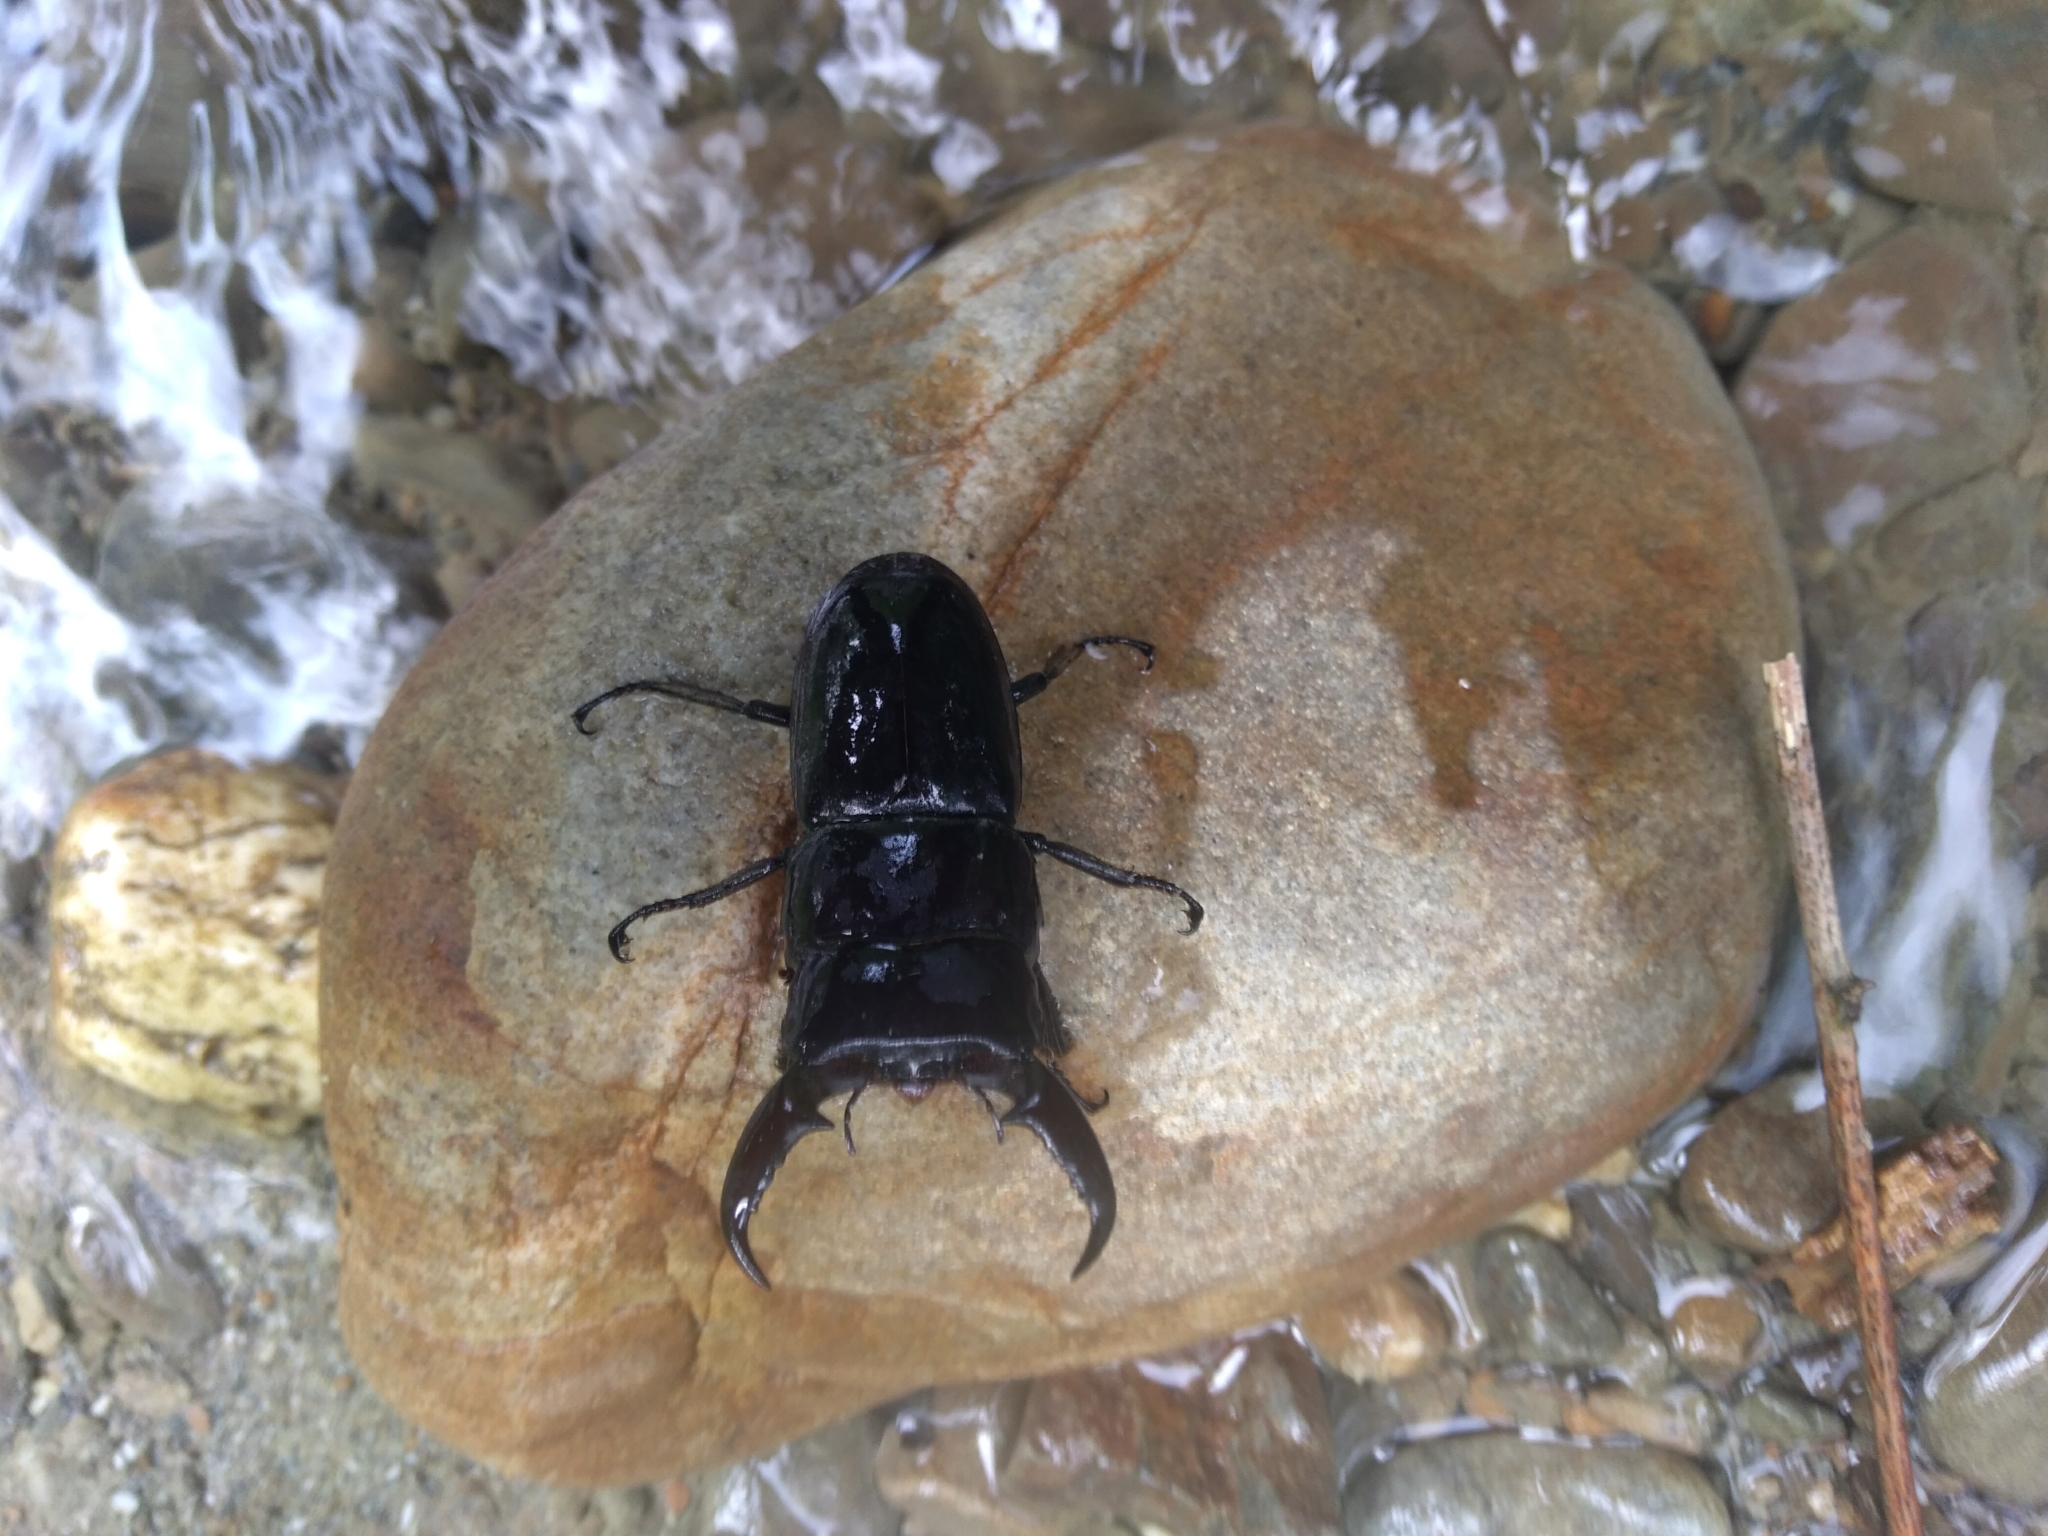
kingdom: Animalia
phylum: Arthropoda
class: Insecta
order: Coleoptera
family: Lucanidae
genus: Serrognathus
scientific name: Serrognathus titanus
